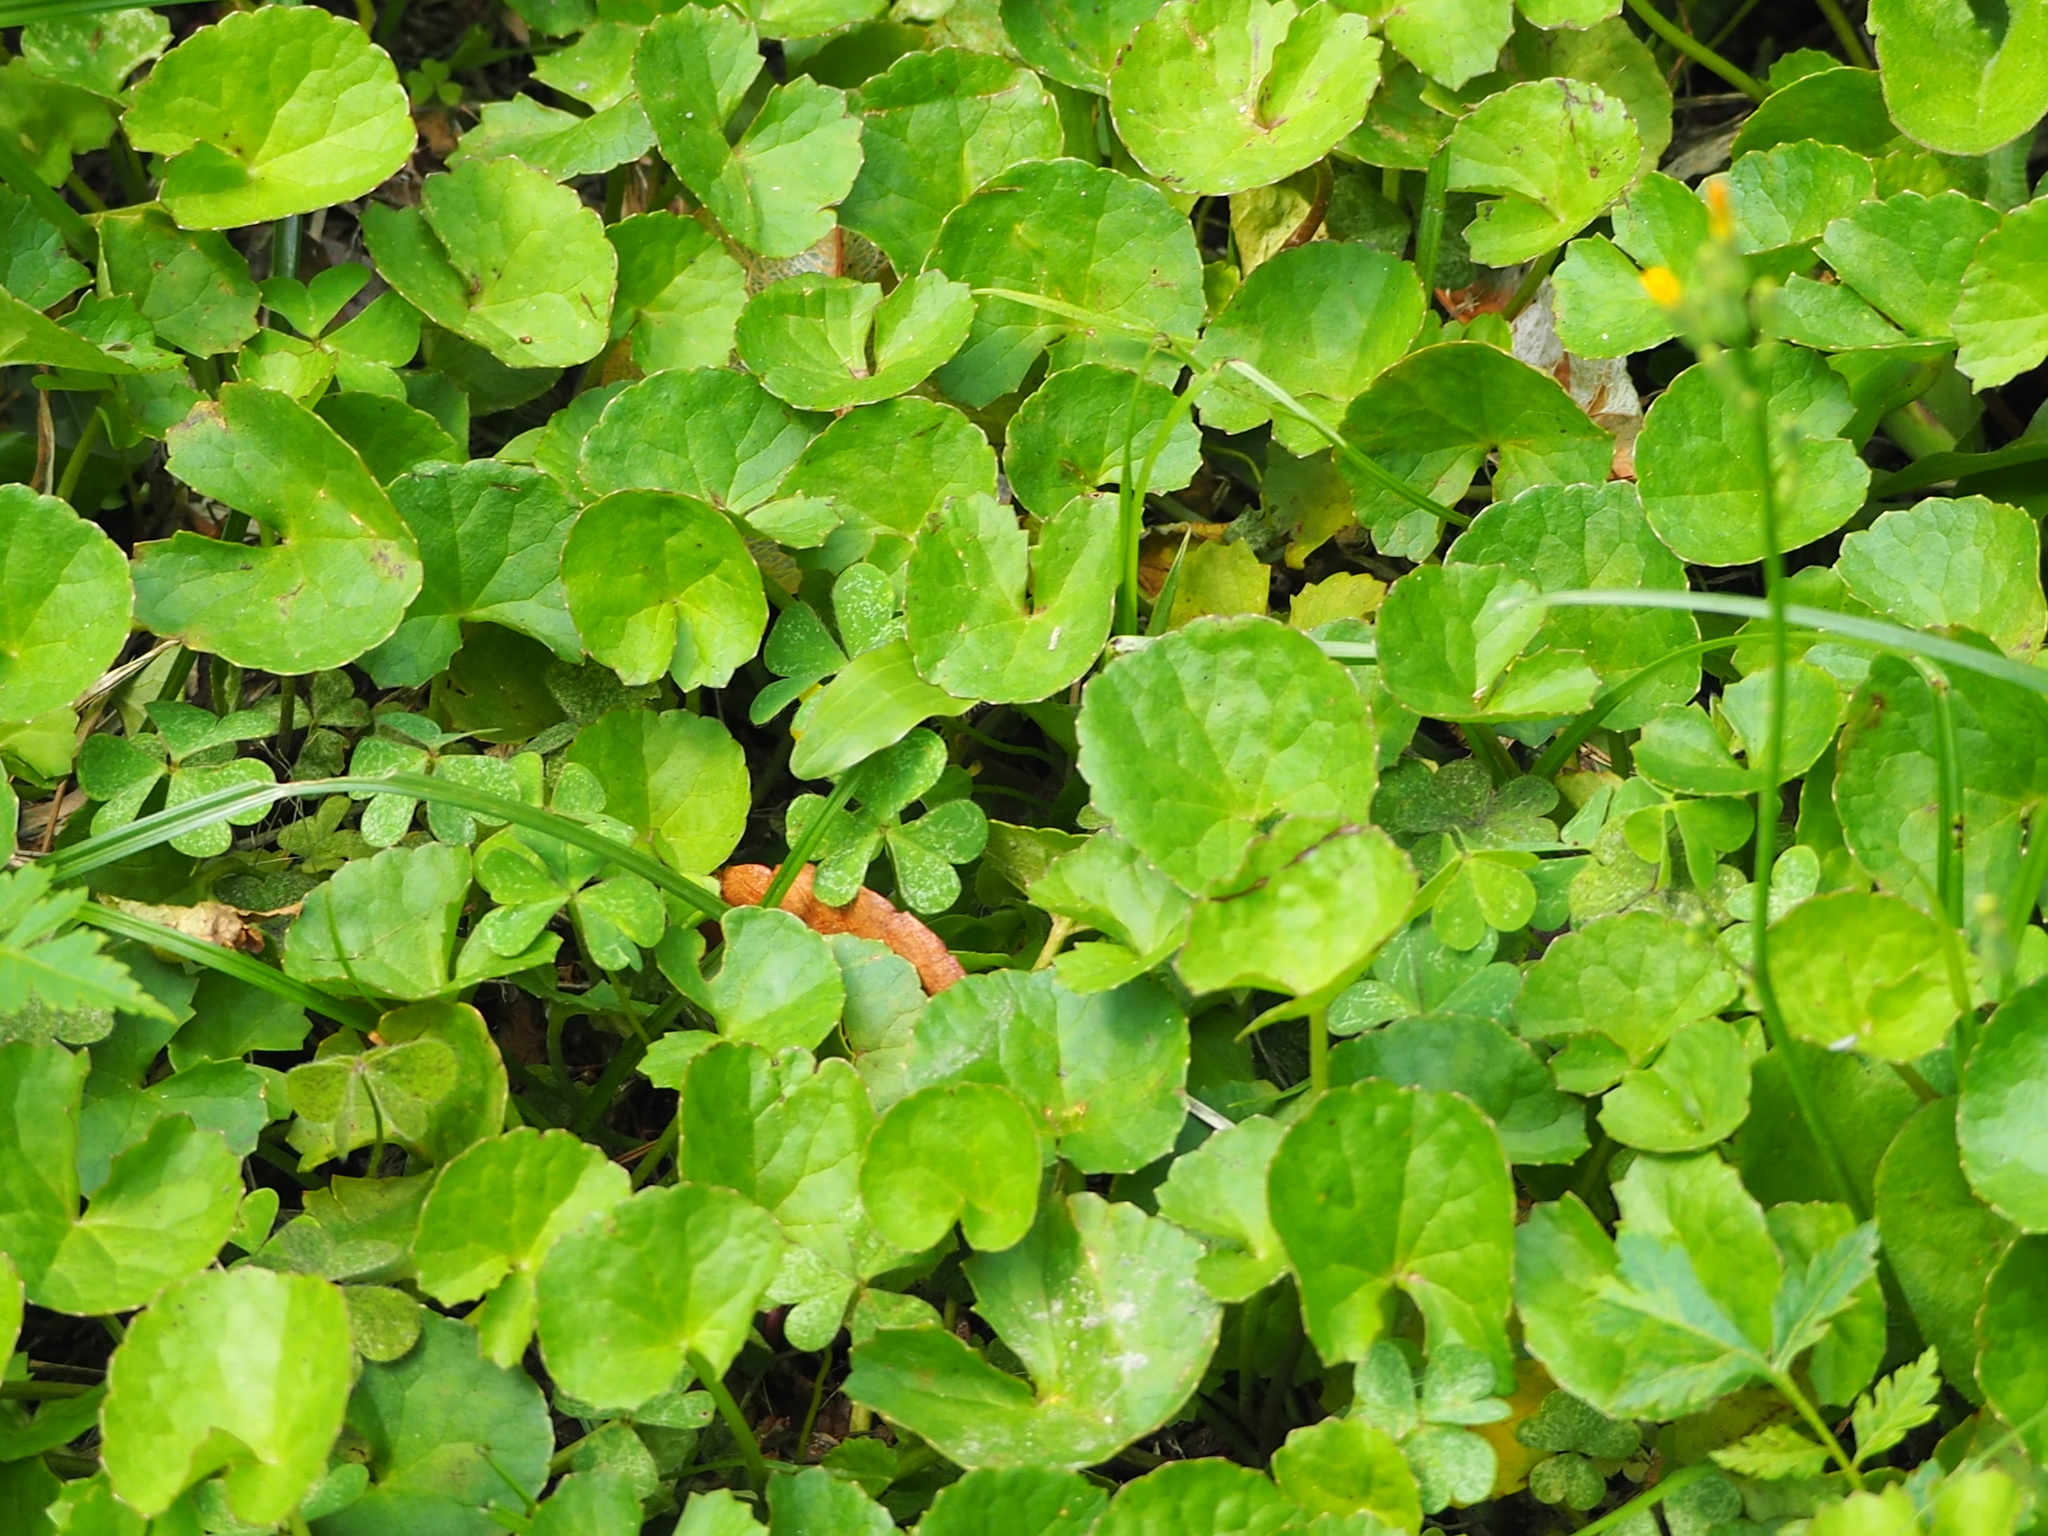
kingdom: Plantae
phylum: Tracheophyta
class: Magnoliopsida
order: Apiales
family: Apiaceae
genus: Centella
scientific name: Centella asiatica
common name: Spadeleaf
